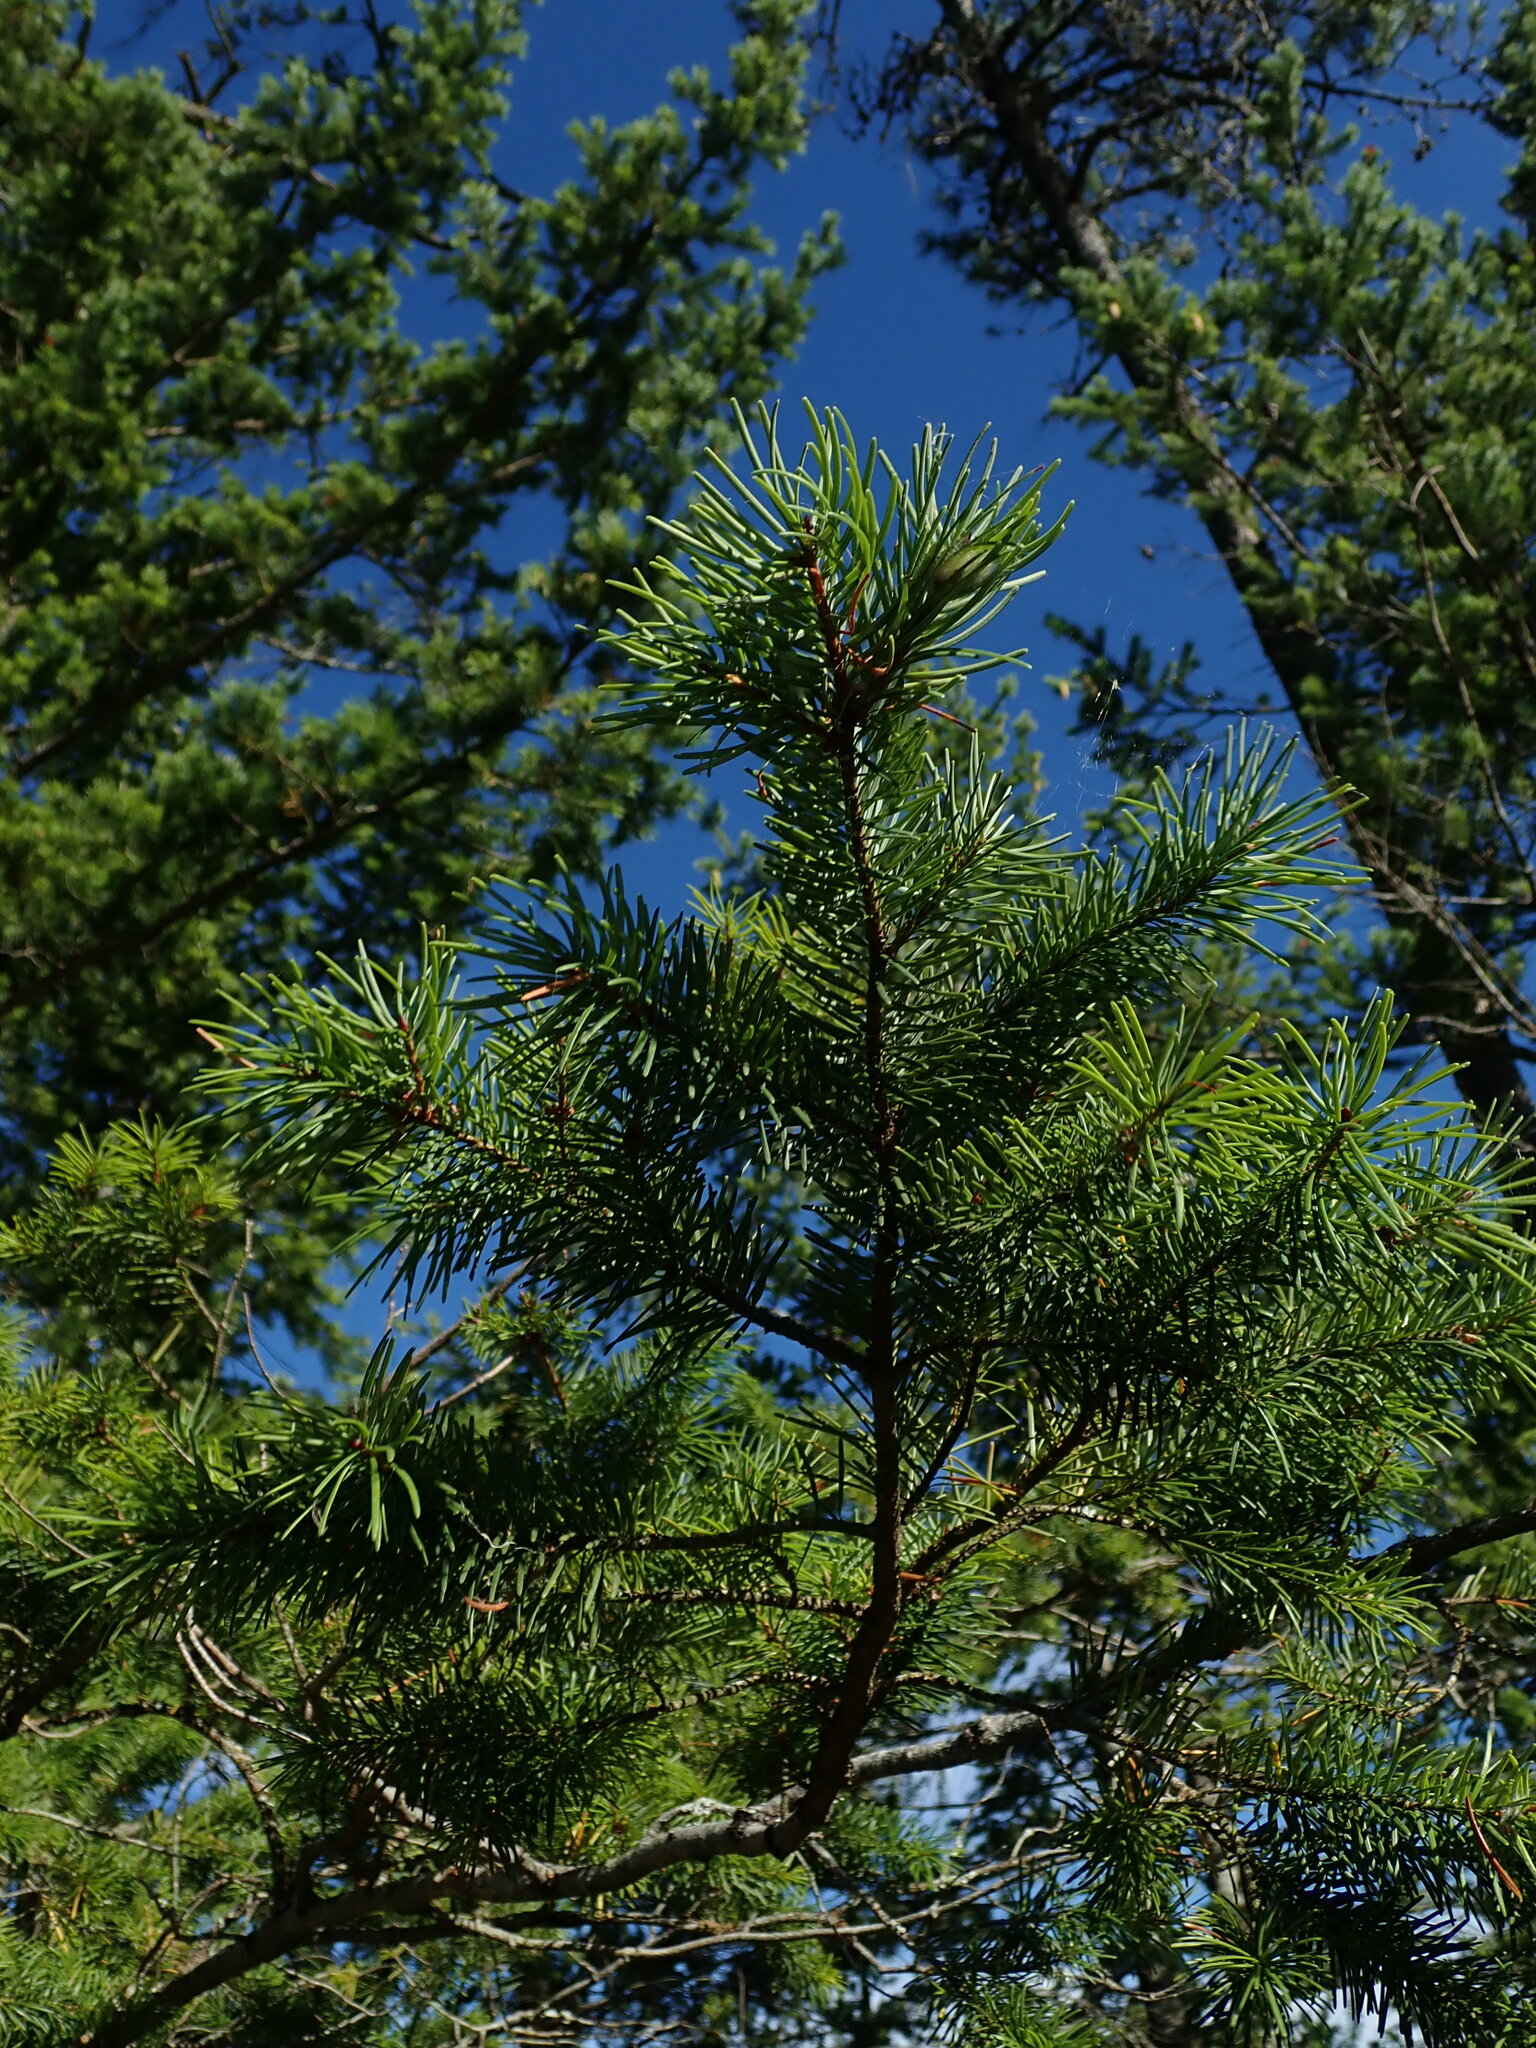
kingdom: Plantae
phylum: Tracheophyta
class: Pinopsida
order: Pinales
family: Pinaceae
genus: Pseudotsuga
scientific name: Pseudotsuga menziesii
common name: Douglas fir
